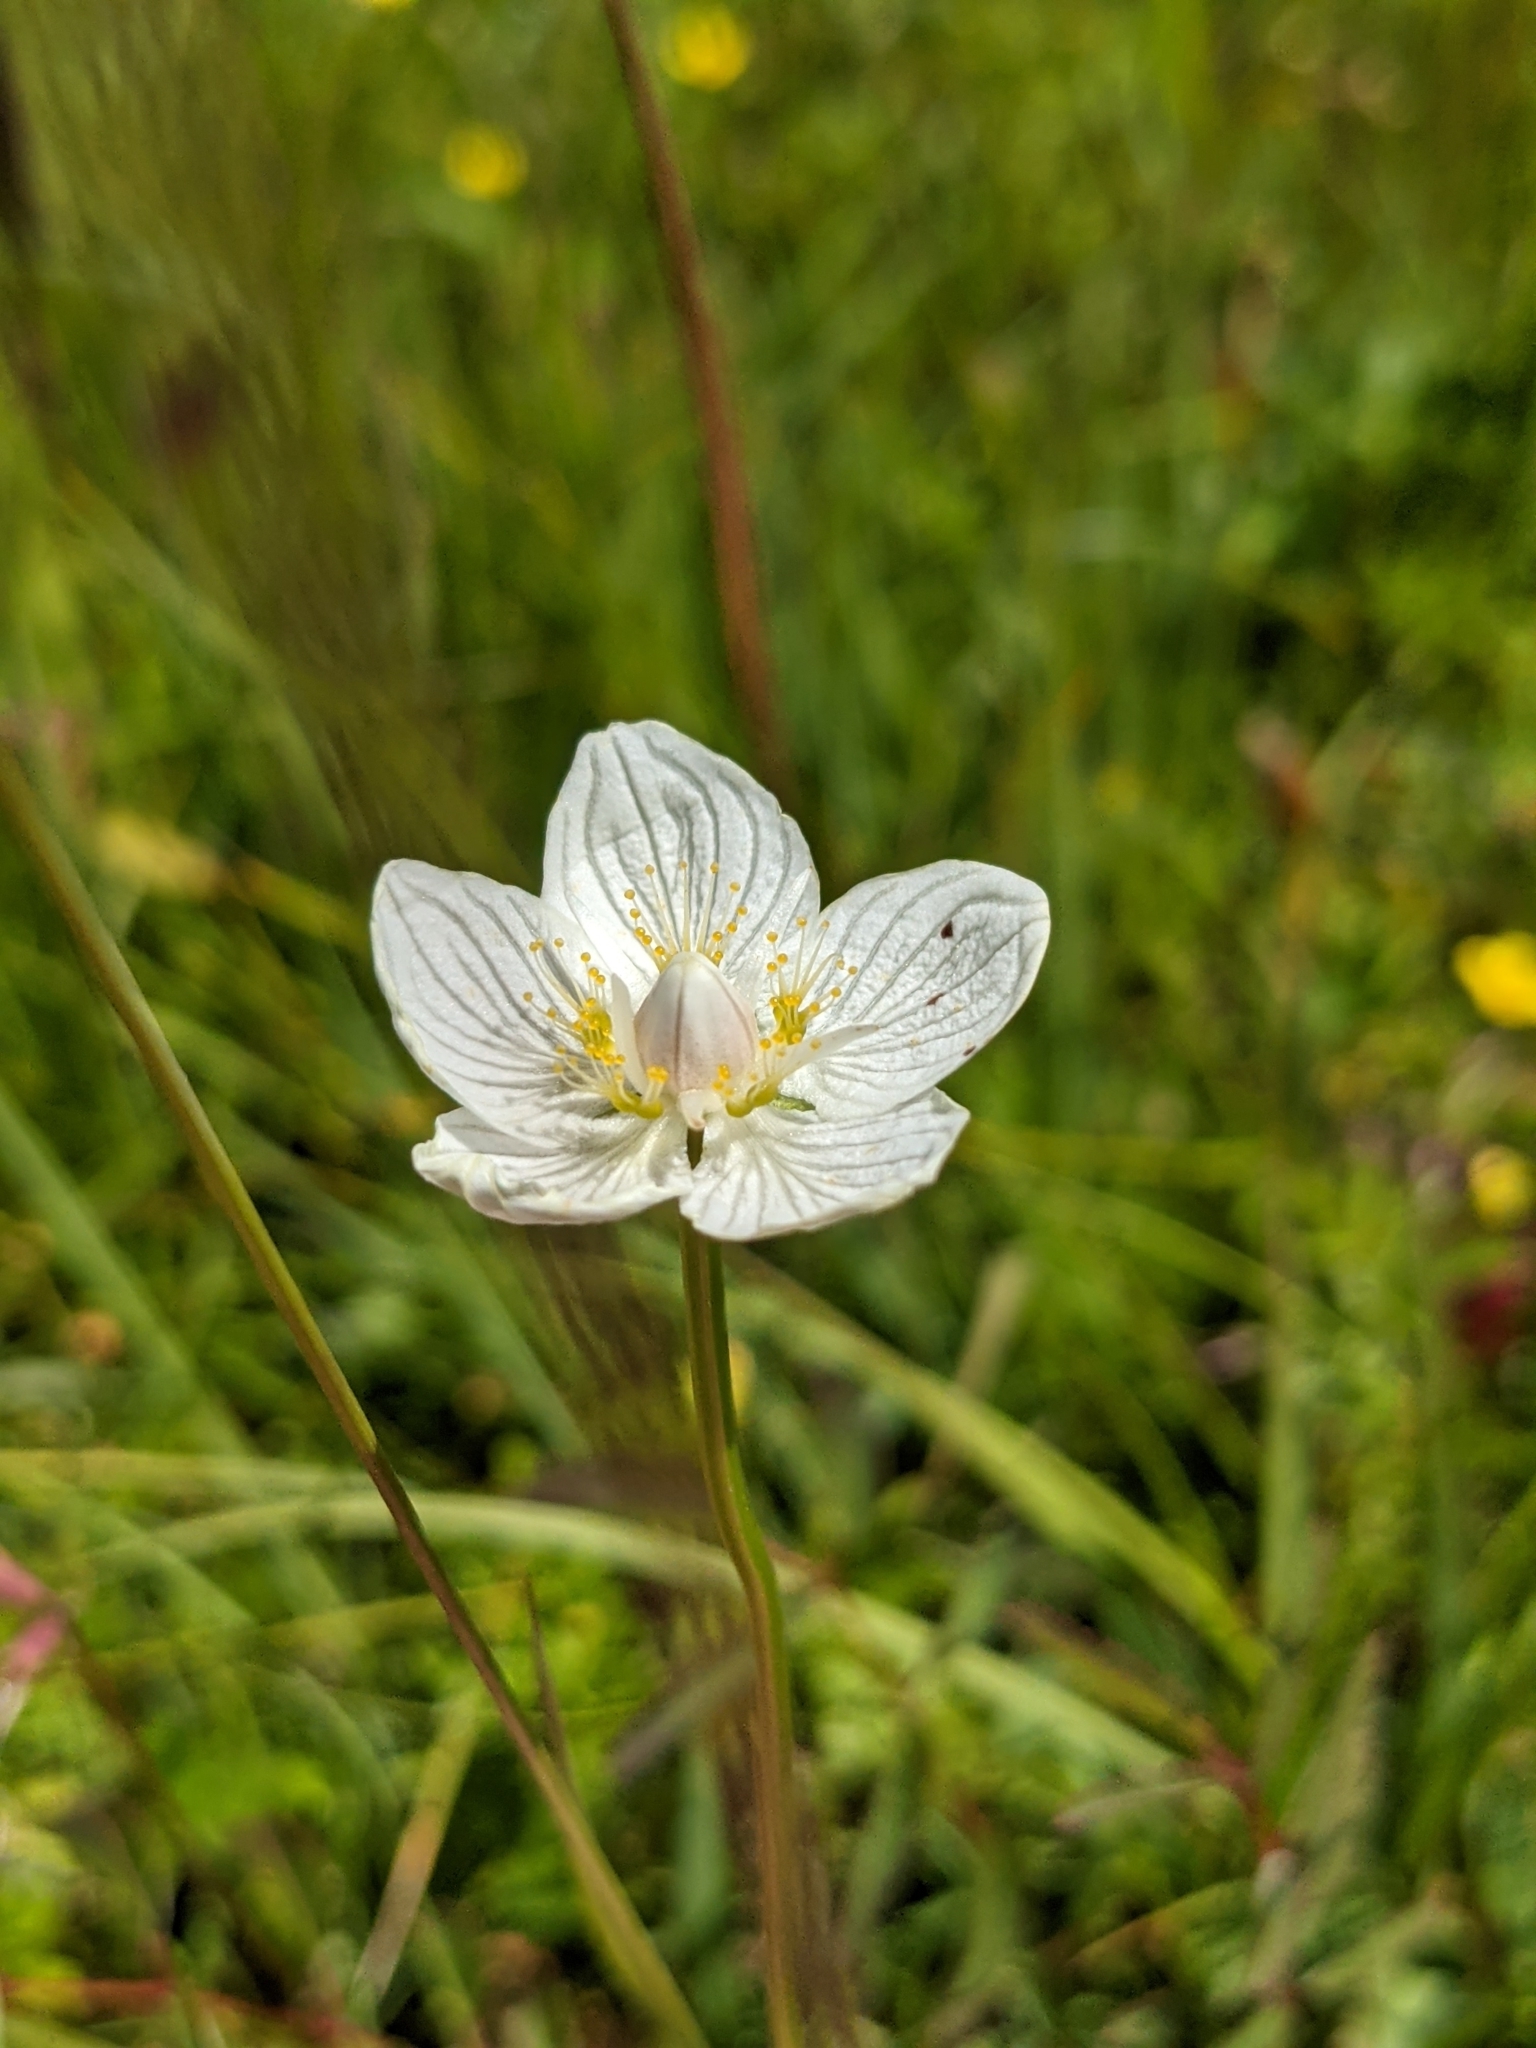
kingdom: Plantae
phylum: Tracheophyta
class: Magnoliopsida
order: Celastrales
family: Parnassiaceae
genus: Parnassia
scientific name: Parnassia palustris
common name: Grass-of-parnassus
